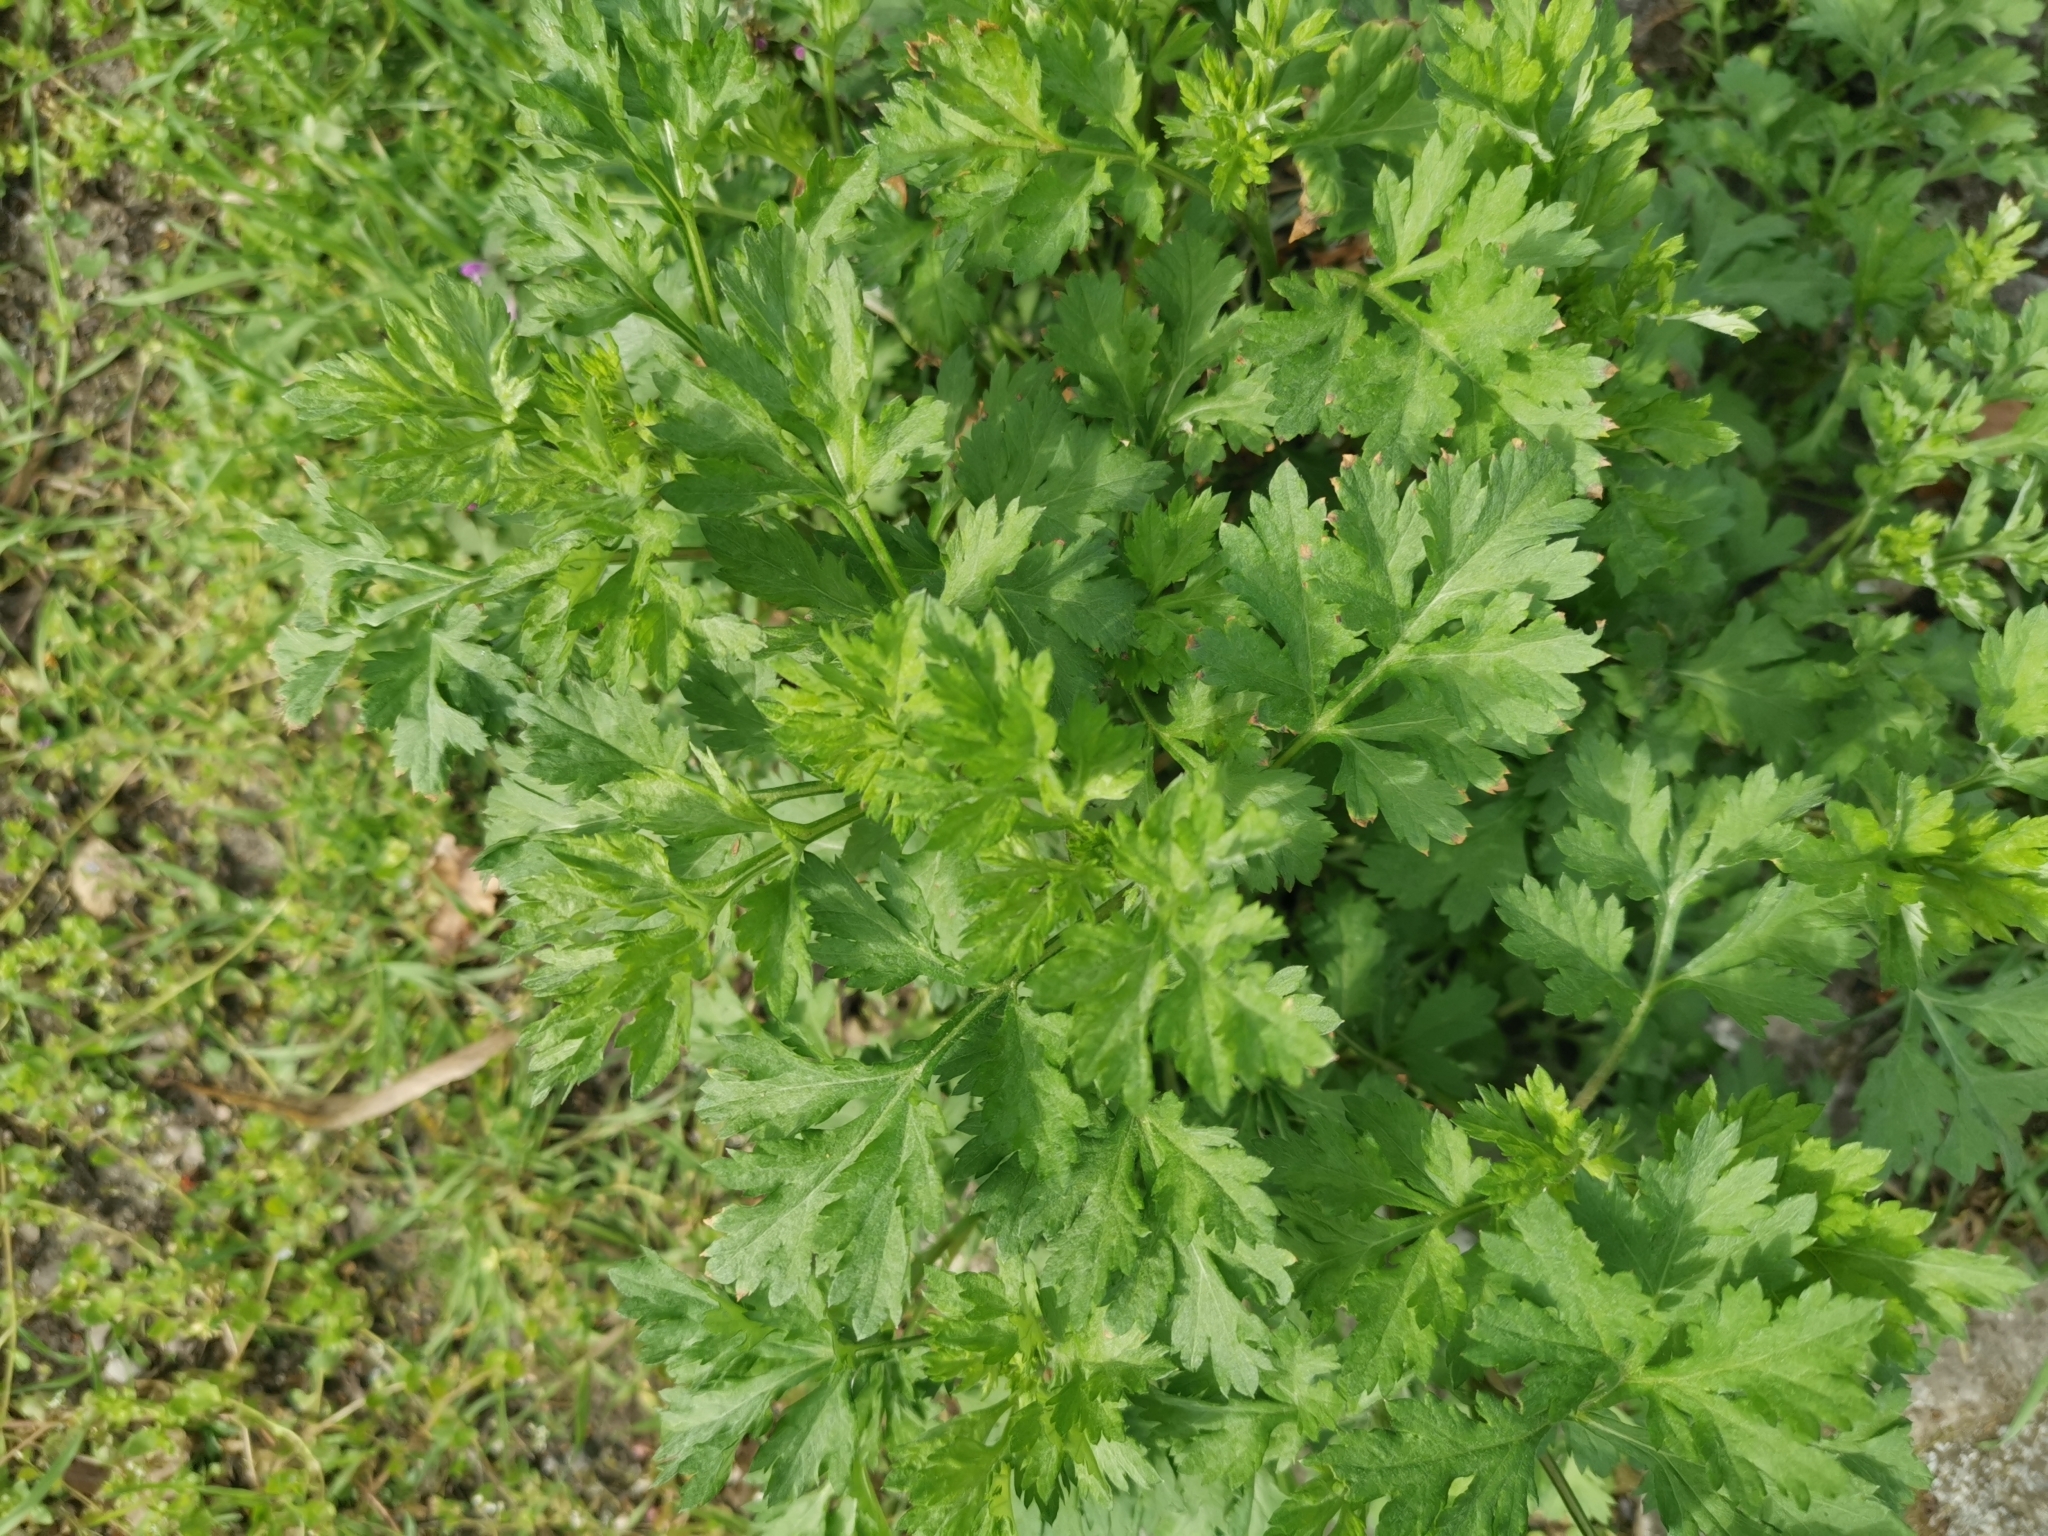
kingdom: Plantae
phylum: Tracheophyta
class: Magnoliopsida
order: Asterales
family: Asteraceae
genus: Artemisia
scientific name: Artemisia vulgaris
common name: Mugwort
